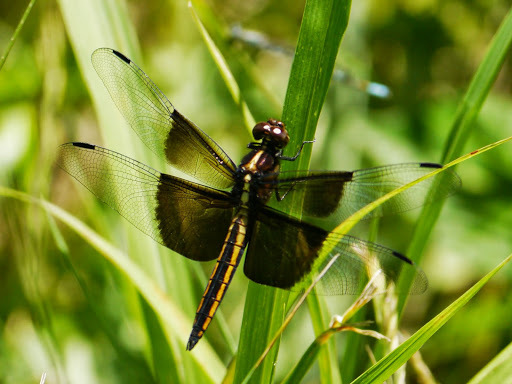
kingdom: Animalia
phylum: Arthropoda
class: Insecta
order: Odonata
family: Libellulidae
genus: Libellula
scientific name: Libellula luctuosa
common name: Widow skimmer
